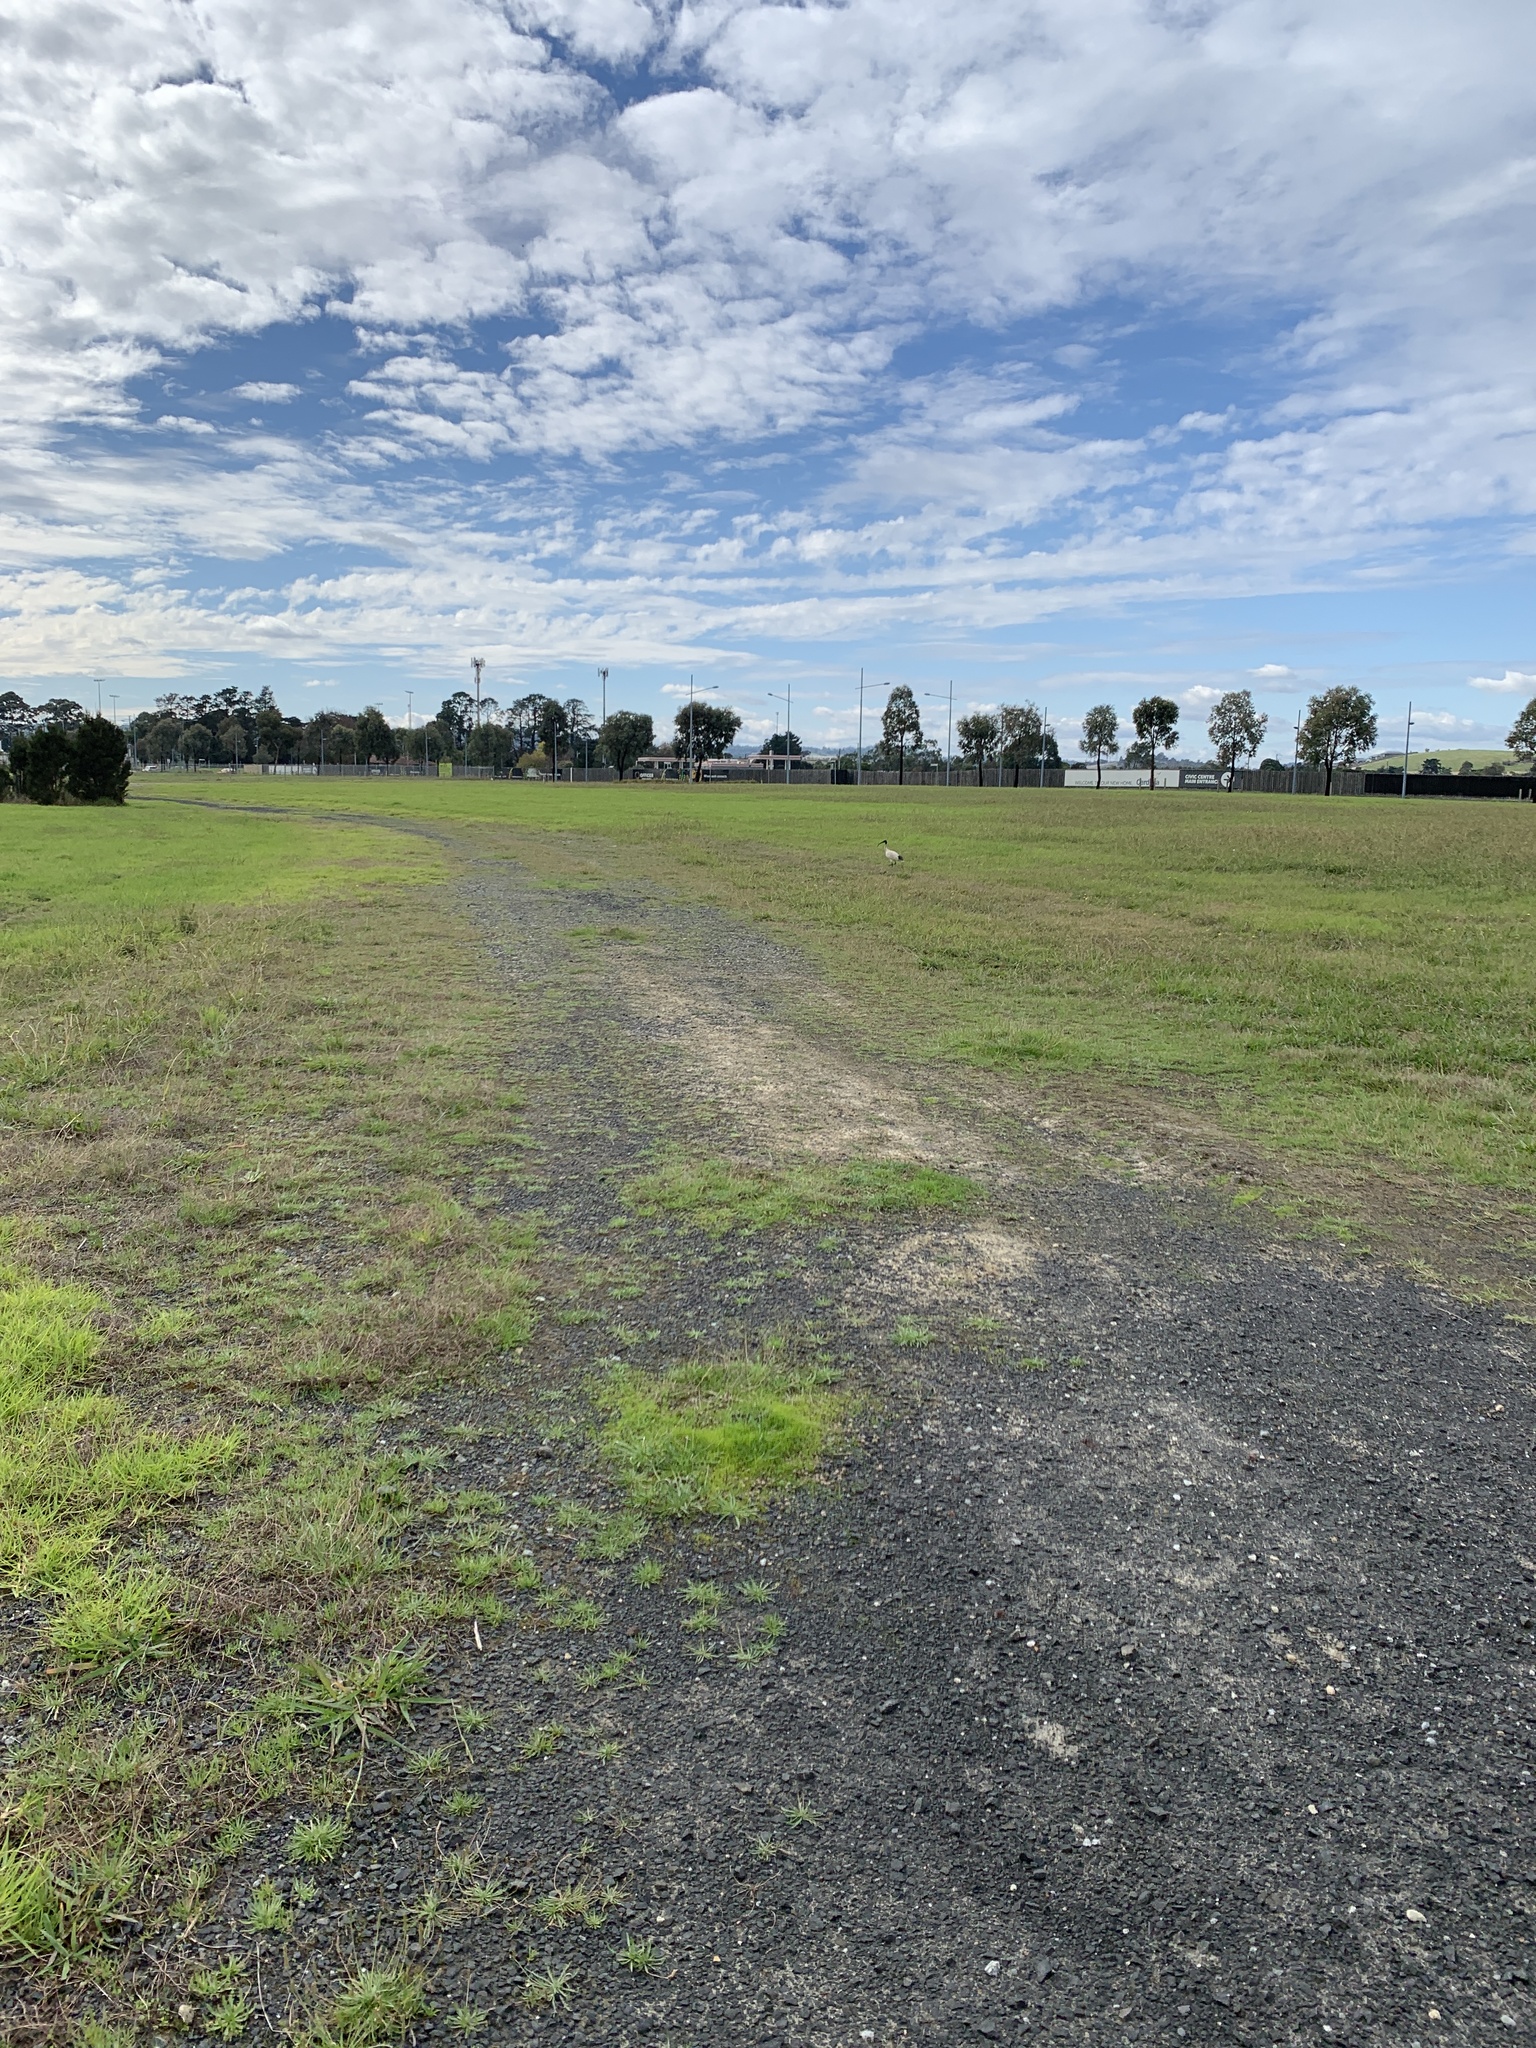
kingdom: Animalia
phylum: Chordata
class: Aves
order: Pelecaniformes
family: Threskiornithidae
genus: Threskiornis
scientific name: Threskiornis molucca
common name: Australian white ibis
